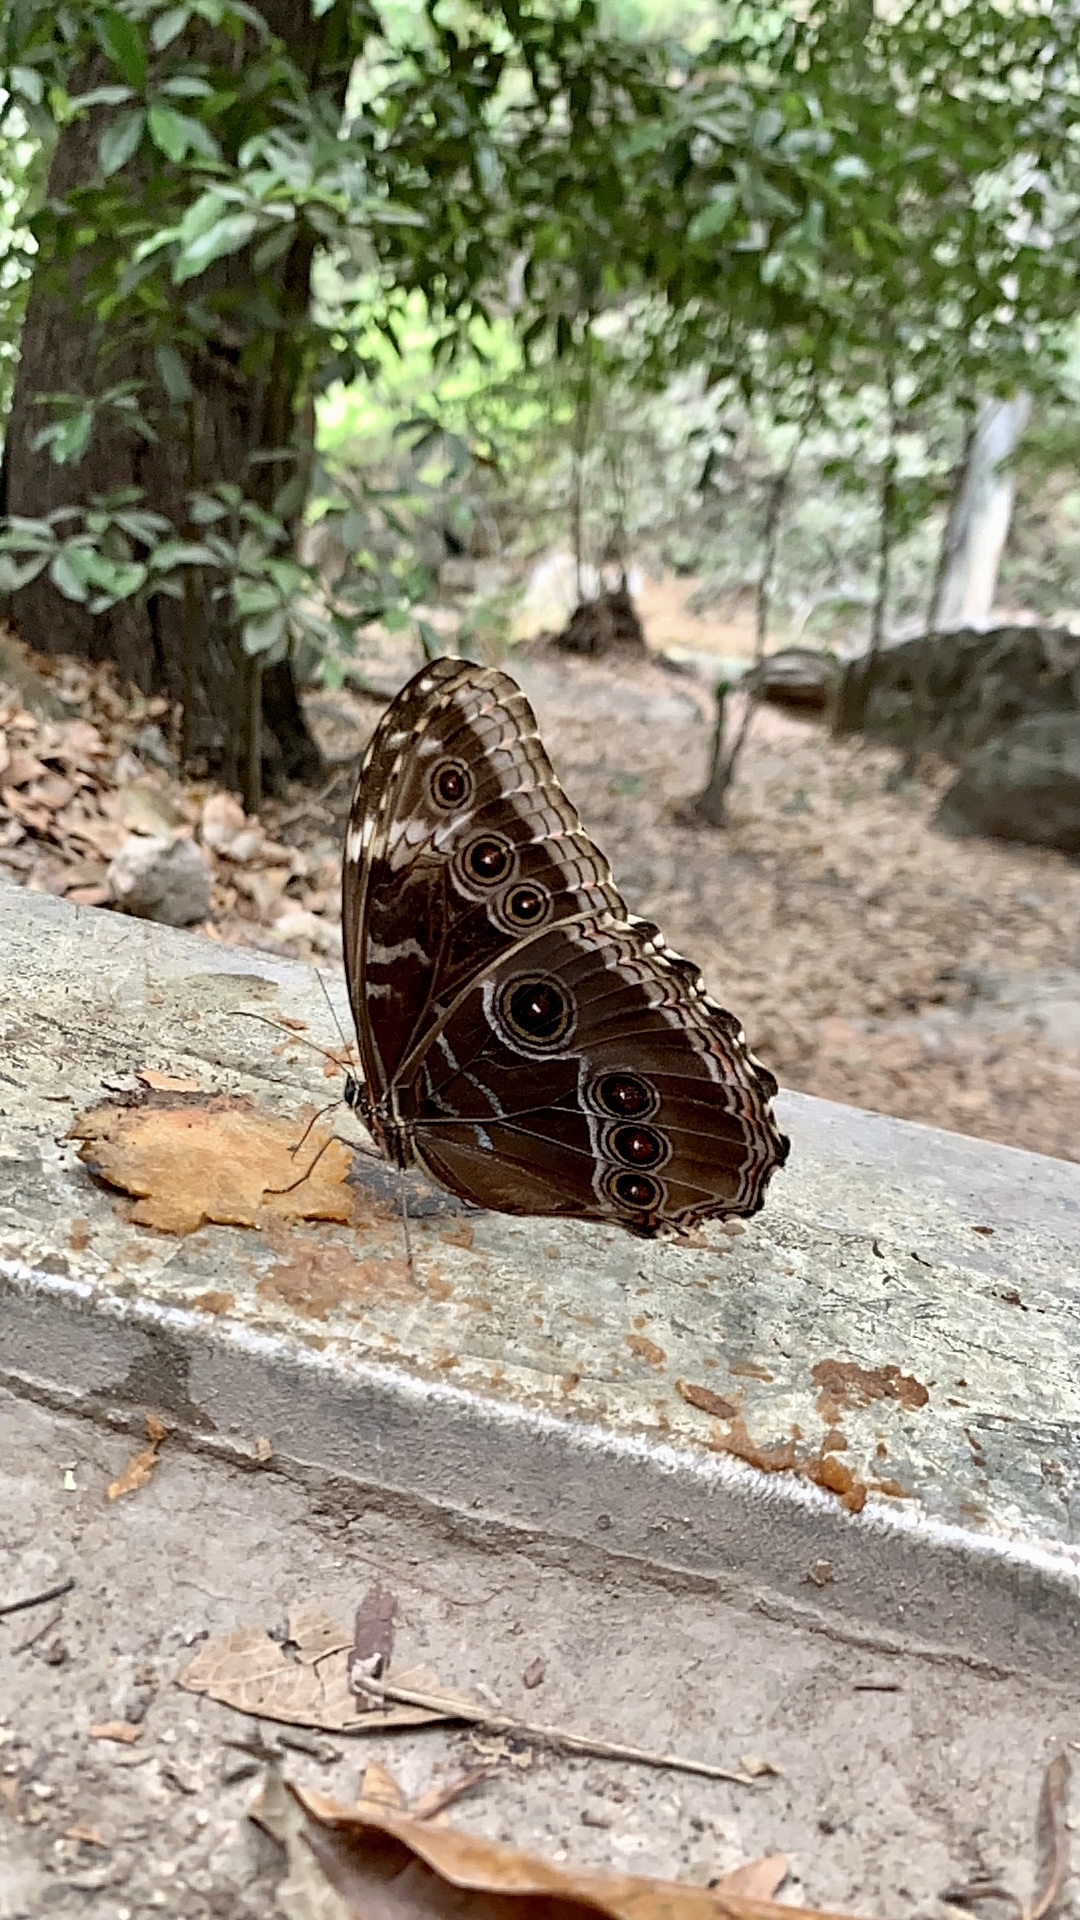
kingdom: Animalia
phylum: Arthropoda
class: Insecta
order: Lepidoptera
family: Nymphalidae
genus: Morpho
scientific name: Morpho helenor
